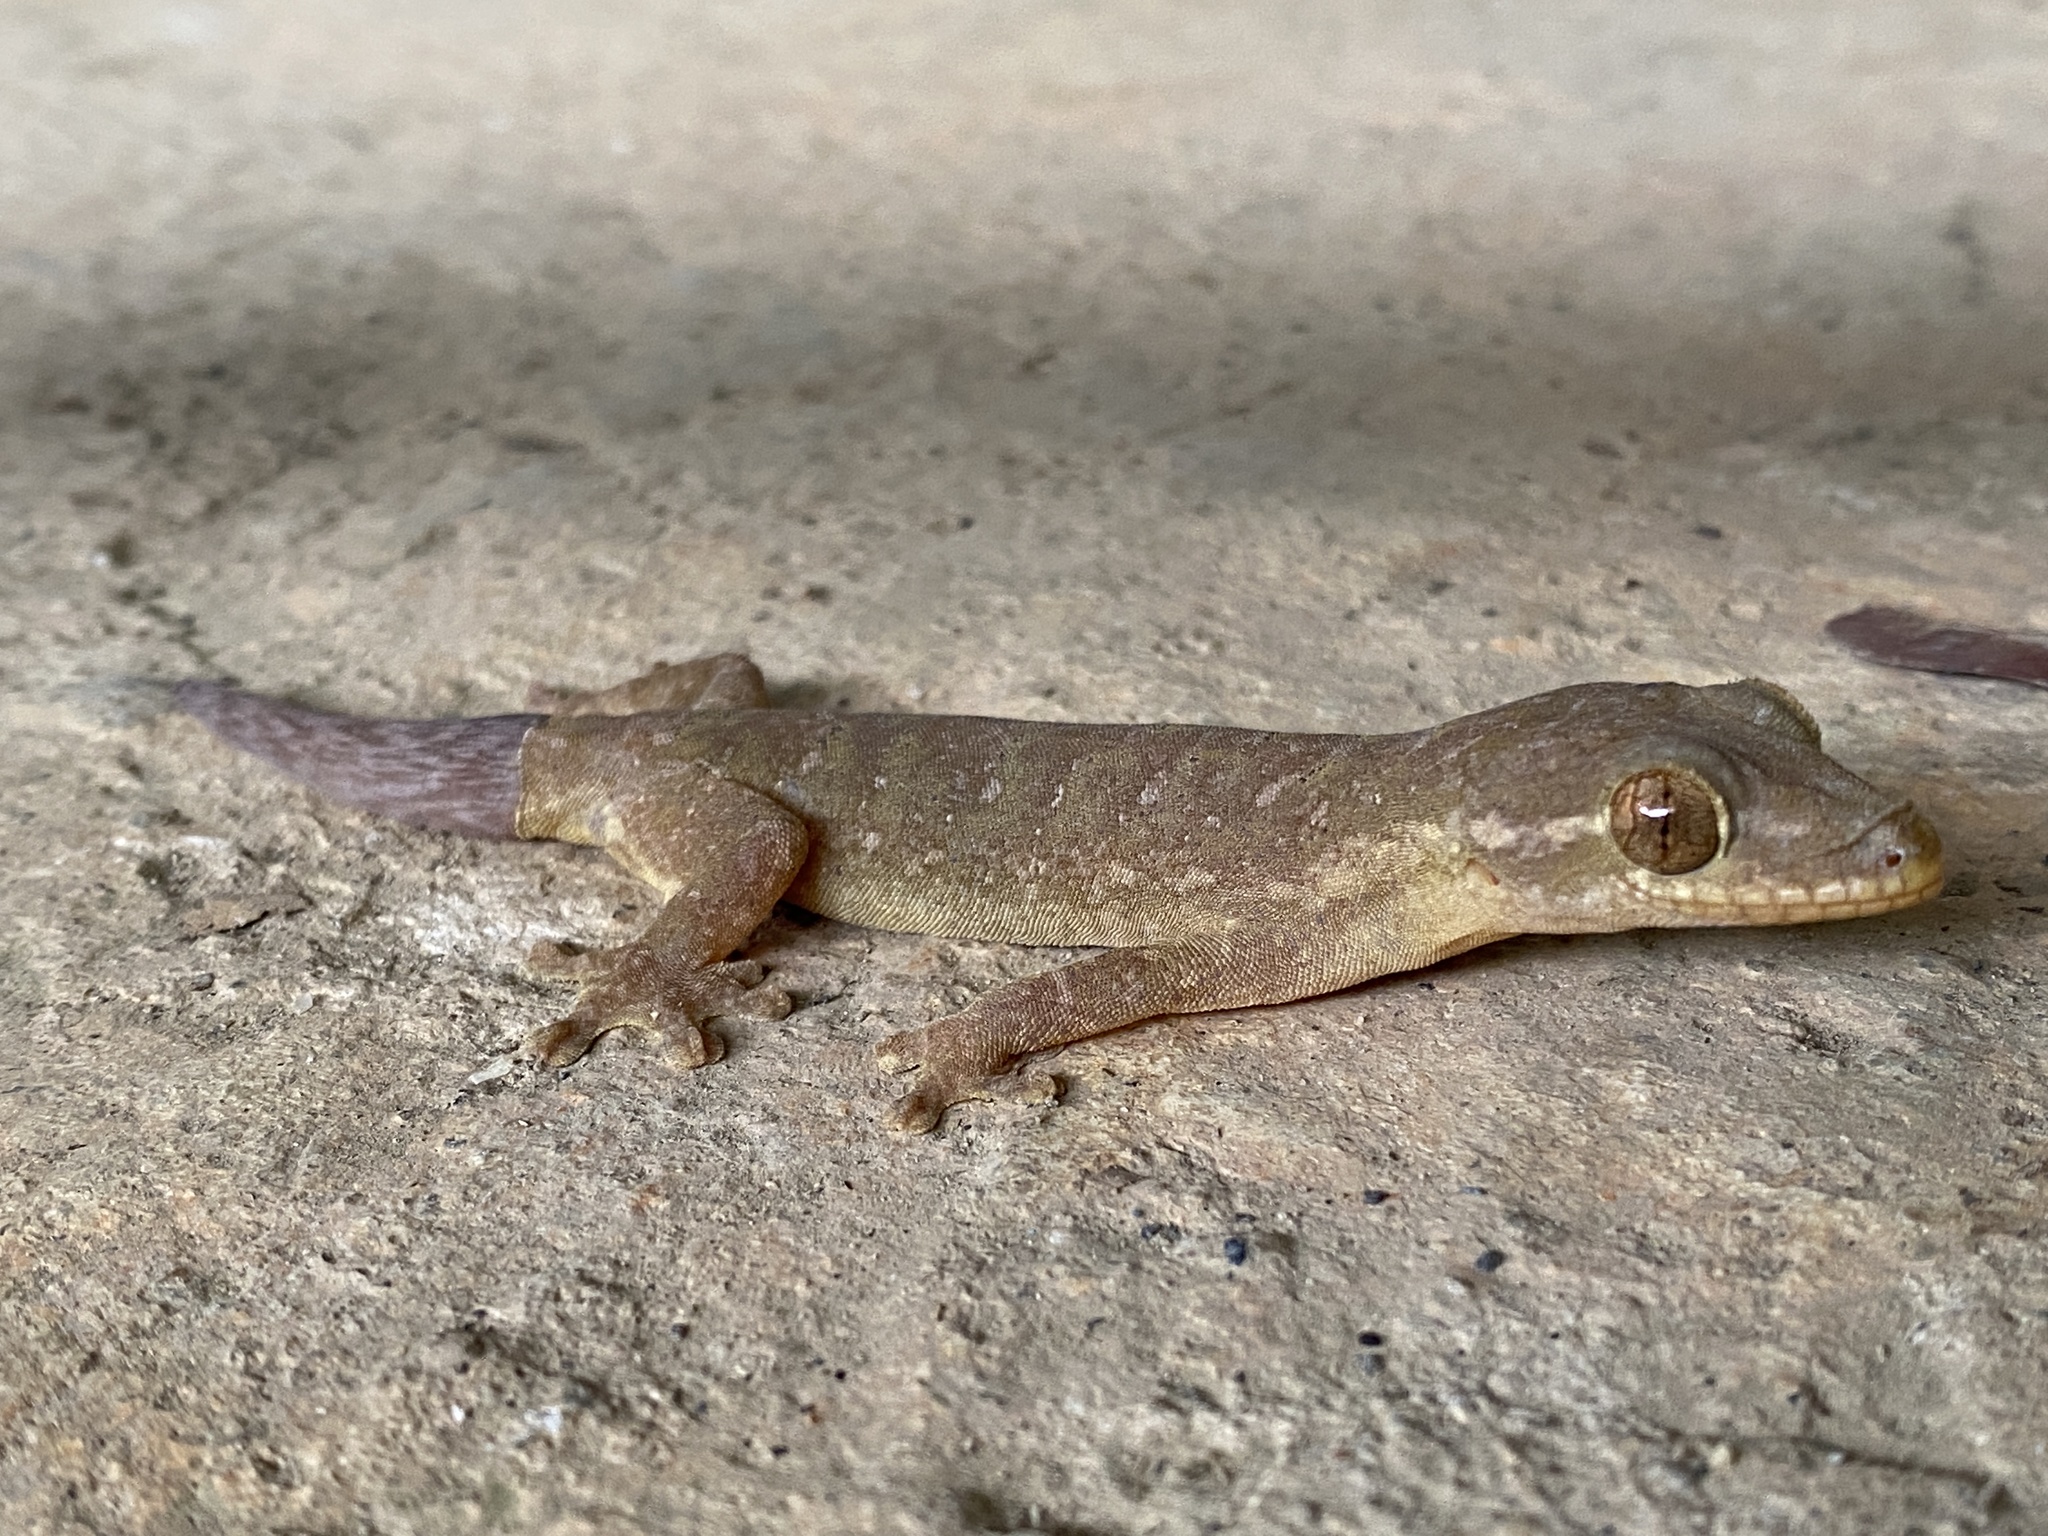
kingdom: Animalia
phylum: Chordata
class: Squamata
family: Phyllodactylidae
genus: Thecadactylus
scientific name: Thecadactylus rapicauda
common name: Turnip-tailed gecko
